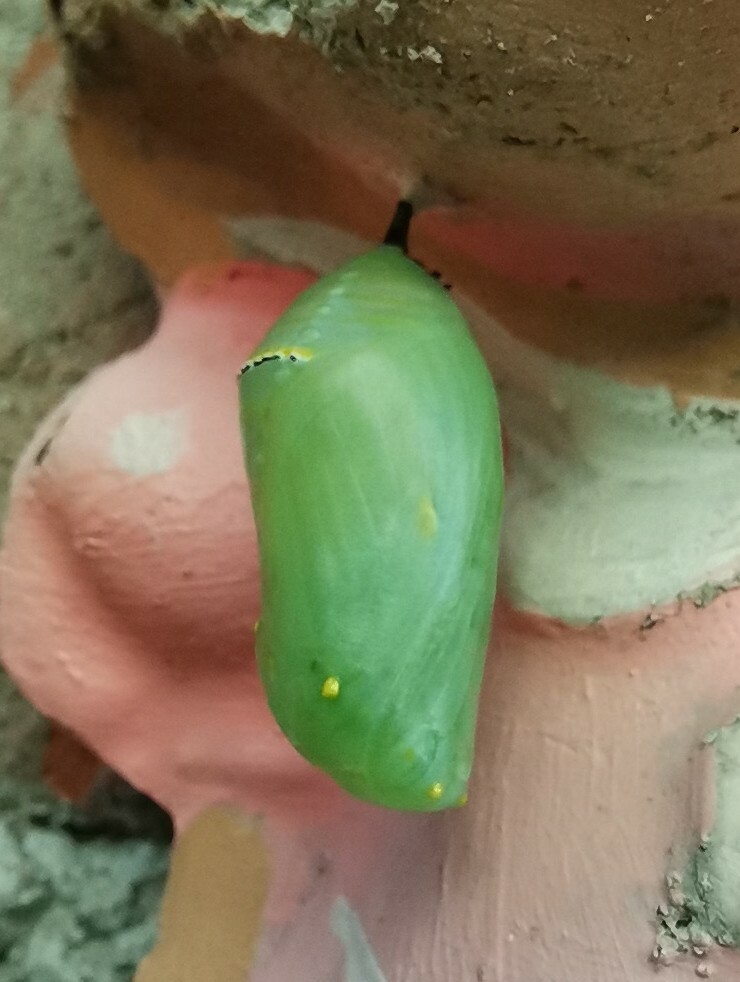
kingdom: Animalia
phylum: Arthropoda
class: Insecta
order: Lepidoptera
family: Nymphalidae
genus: Danaus
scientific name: Danaus plexippus
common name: Monarch
